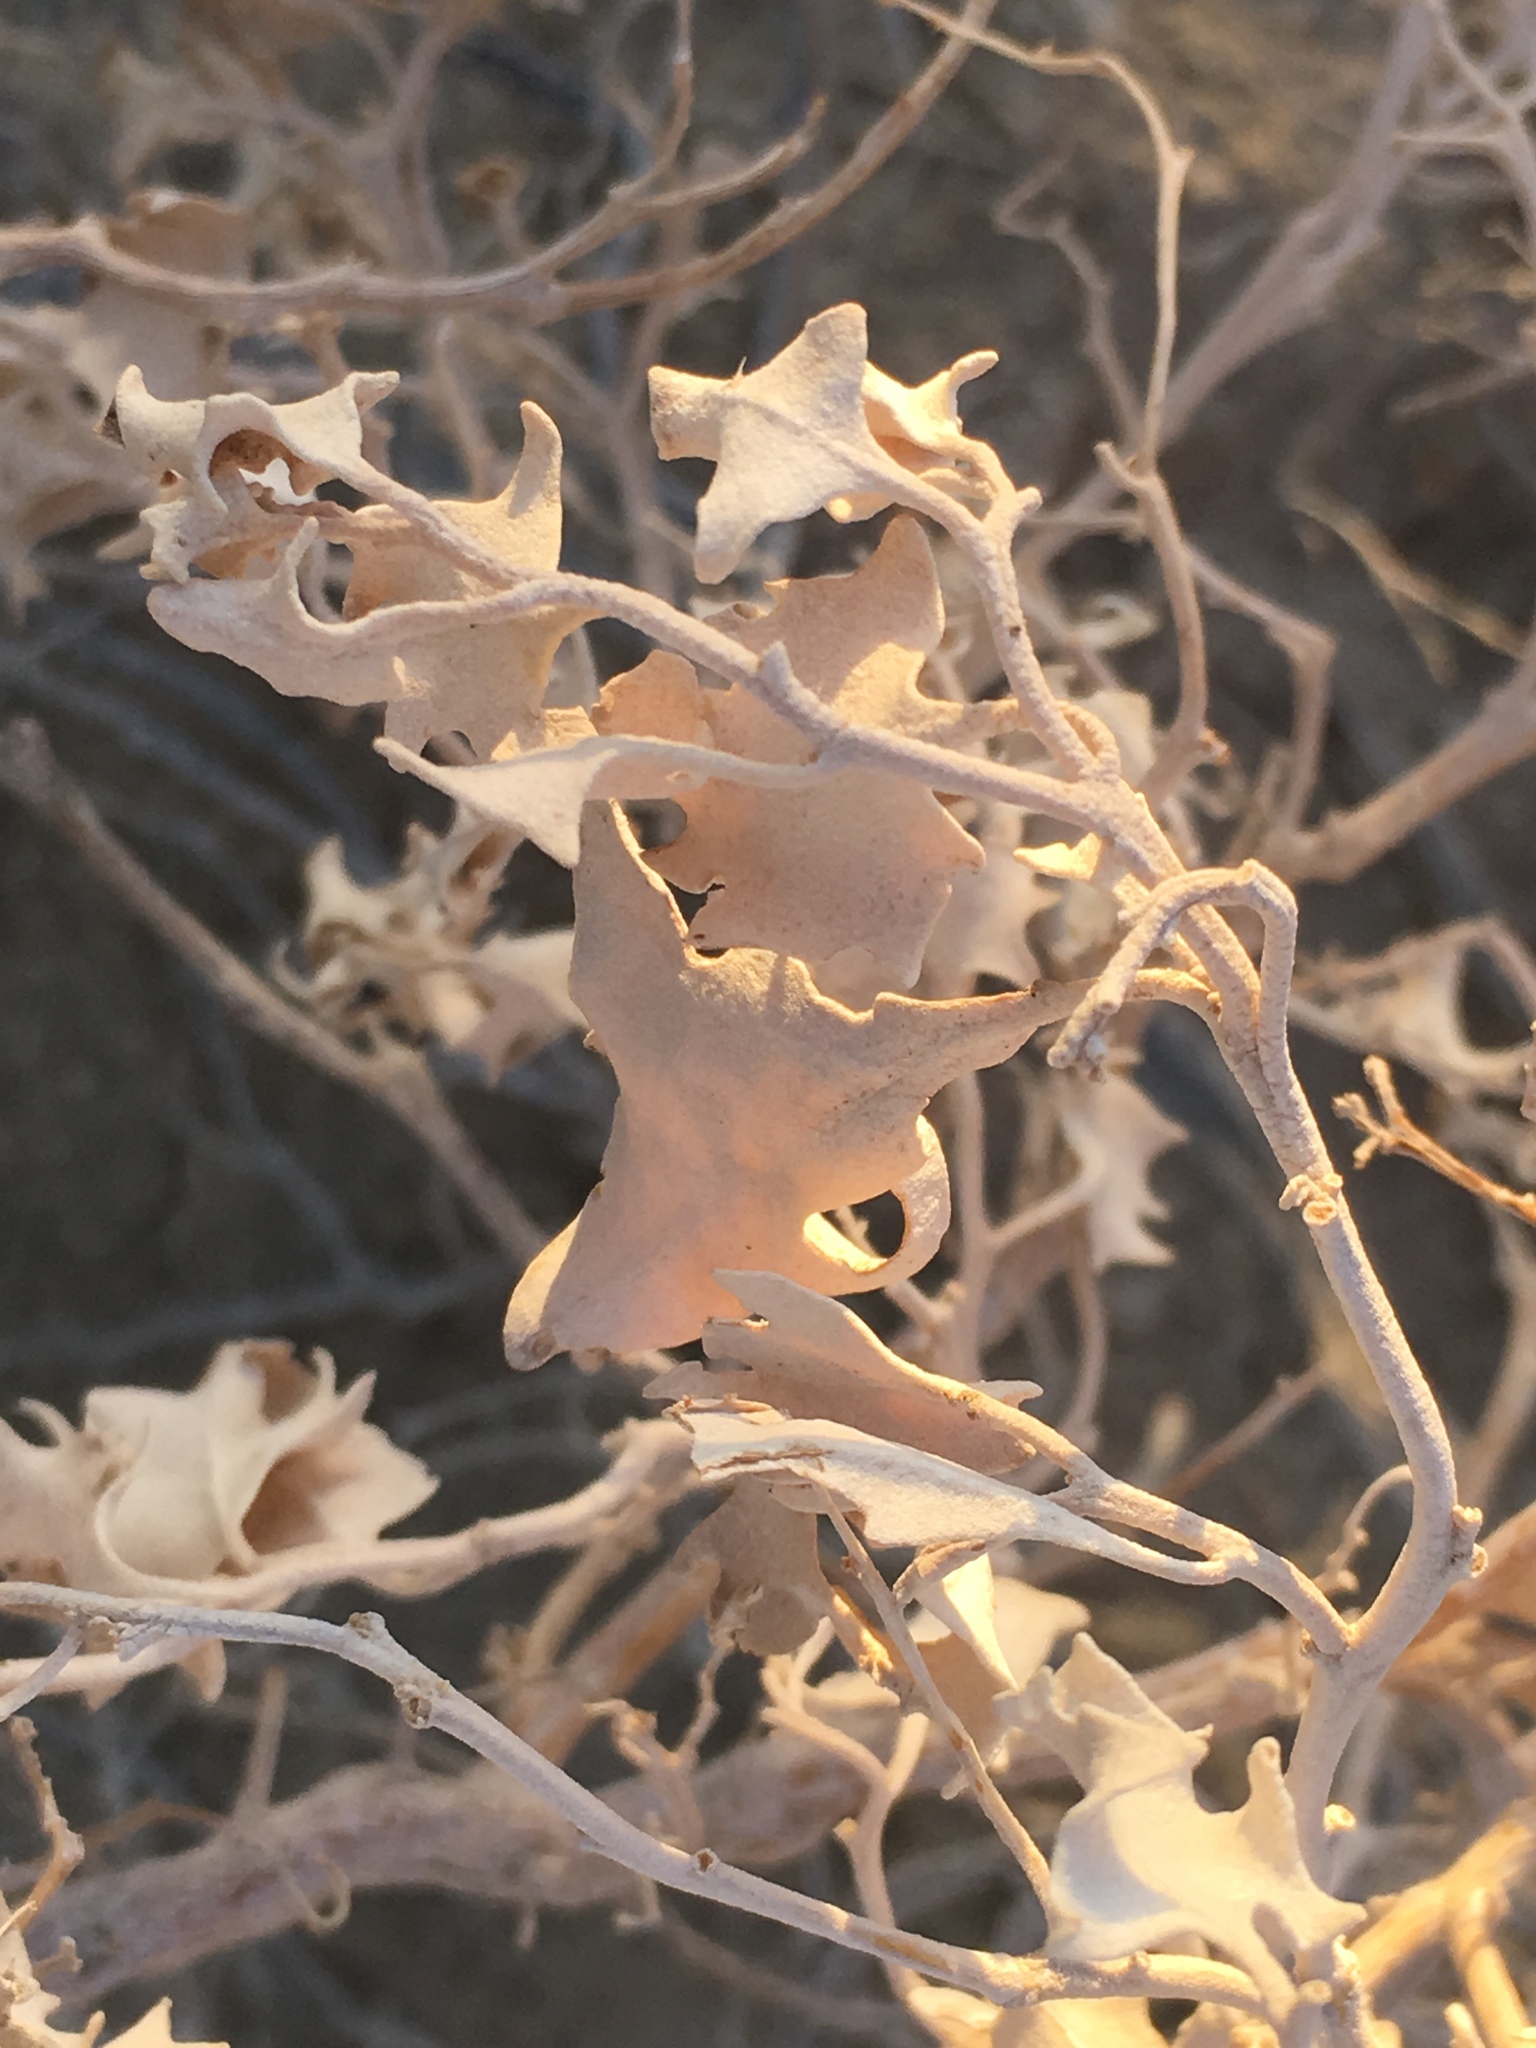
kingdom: Plantae
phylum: Tracheophyta
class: Magnoliopsida
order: Caryophyllales
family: Amaranthaceae
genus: Atriplex
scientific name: Atriplex hymenelytra
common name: Desert-holly
